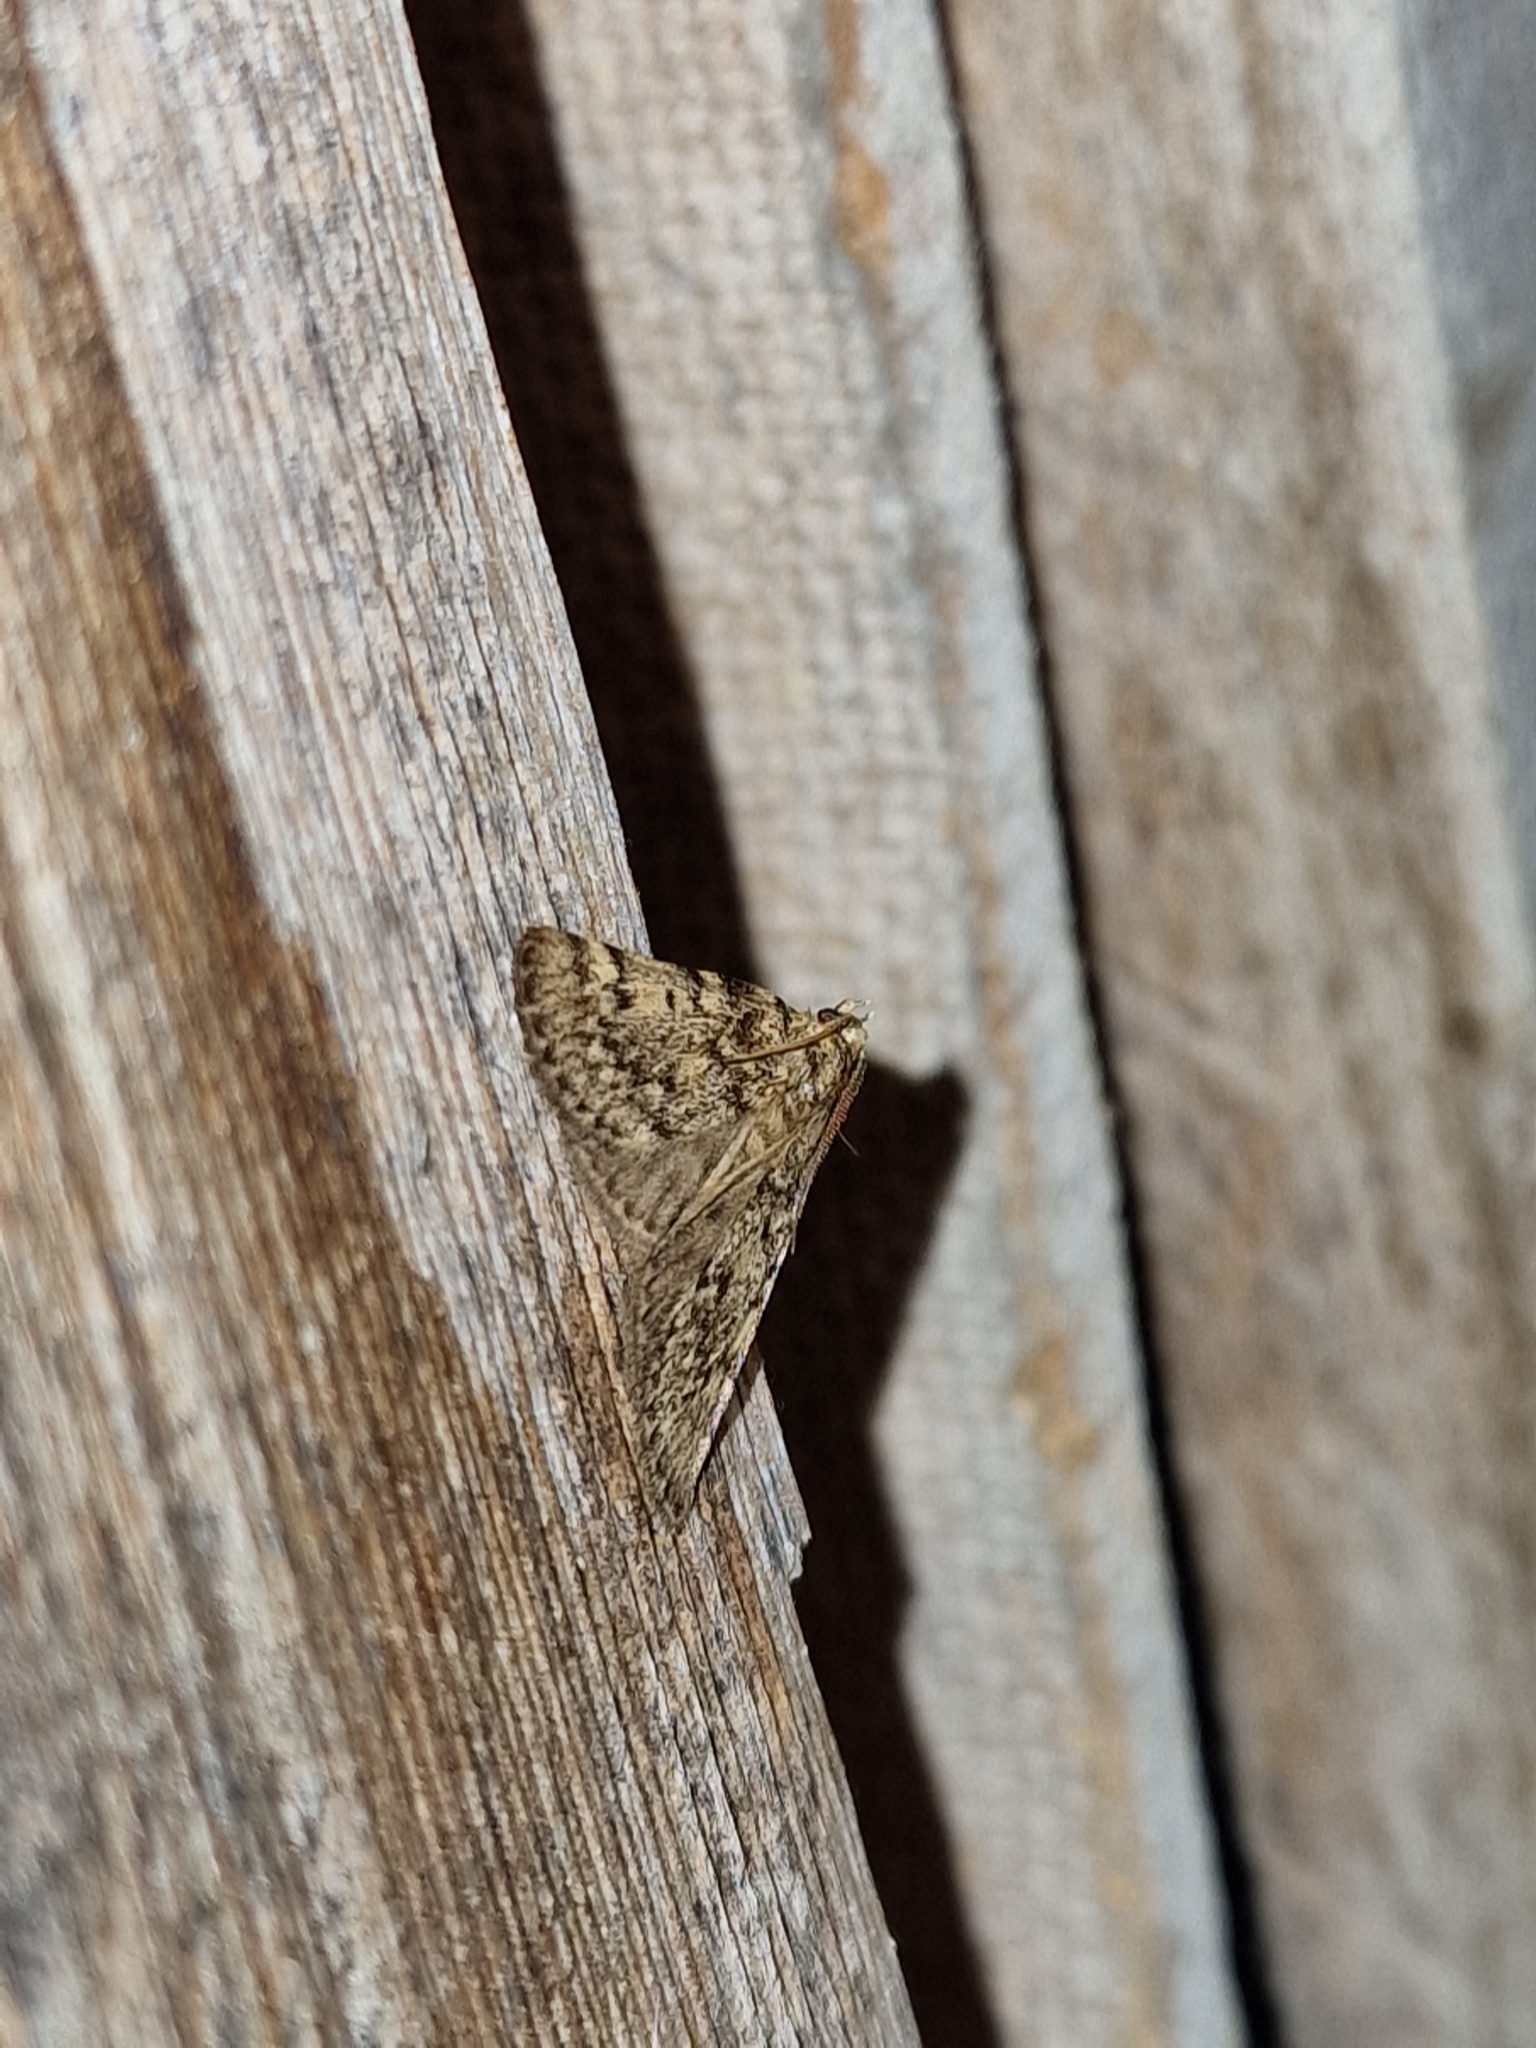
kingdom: Animalia
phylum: Arthropoda
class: Insecta
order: Lepidoptera
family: Pyralidae
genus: Aglossa
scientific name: Aglossa pinguinalis
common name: Large tabby
